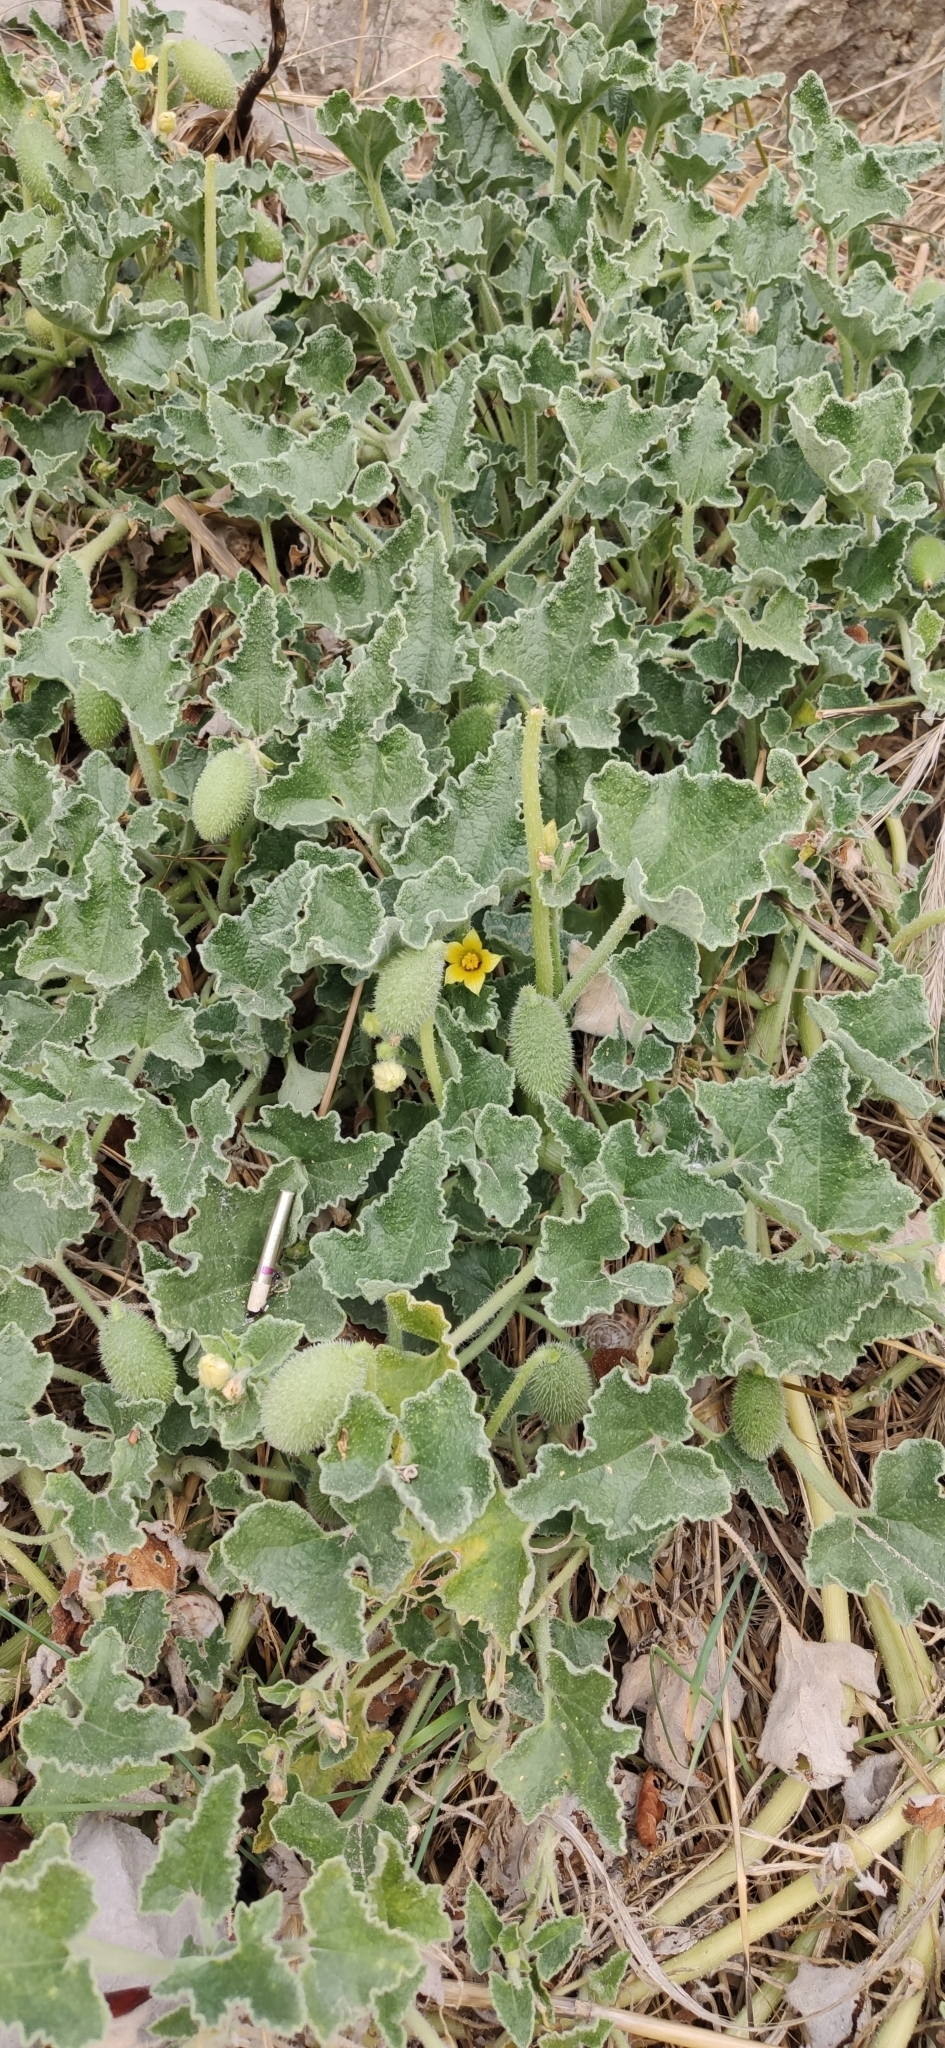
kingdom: Plantae
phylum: Tracheophyta
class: Magnoliopsida
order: Cucurbitales
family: Cucurbitaceae
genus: Ecballium
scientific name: Ecballium elaterium
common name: Squirting cucumber
